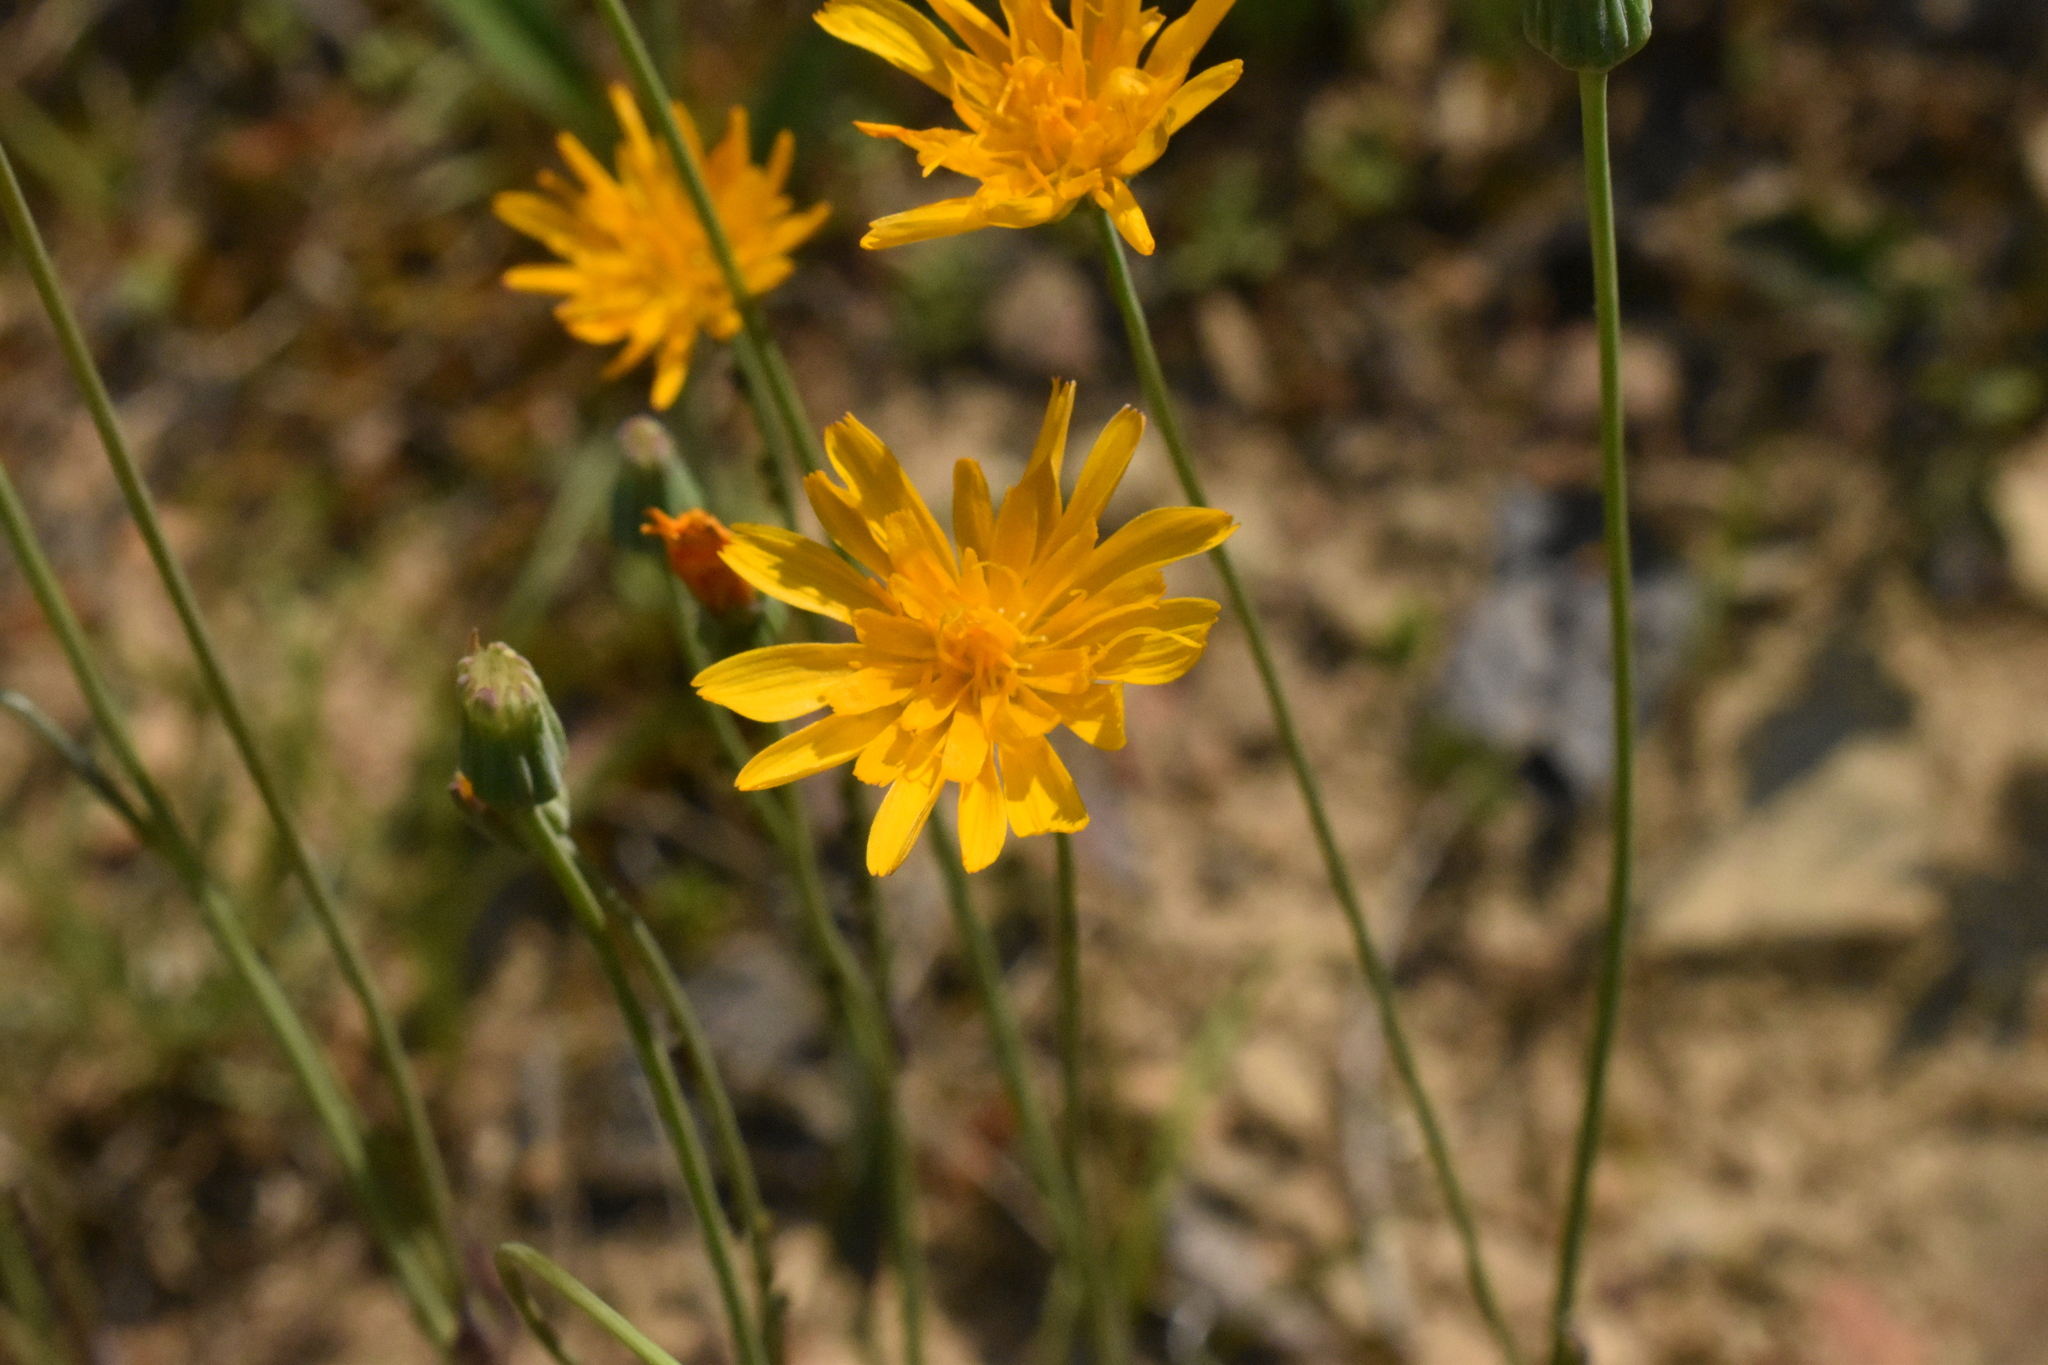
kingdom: Plantae
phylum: Tracheophyta
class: Magnoliopsida
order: Asterales
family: Asteraceae
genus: Krigia
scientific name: Krigia biflora
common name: Orange dwarf-dandelion
